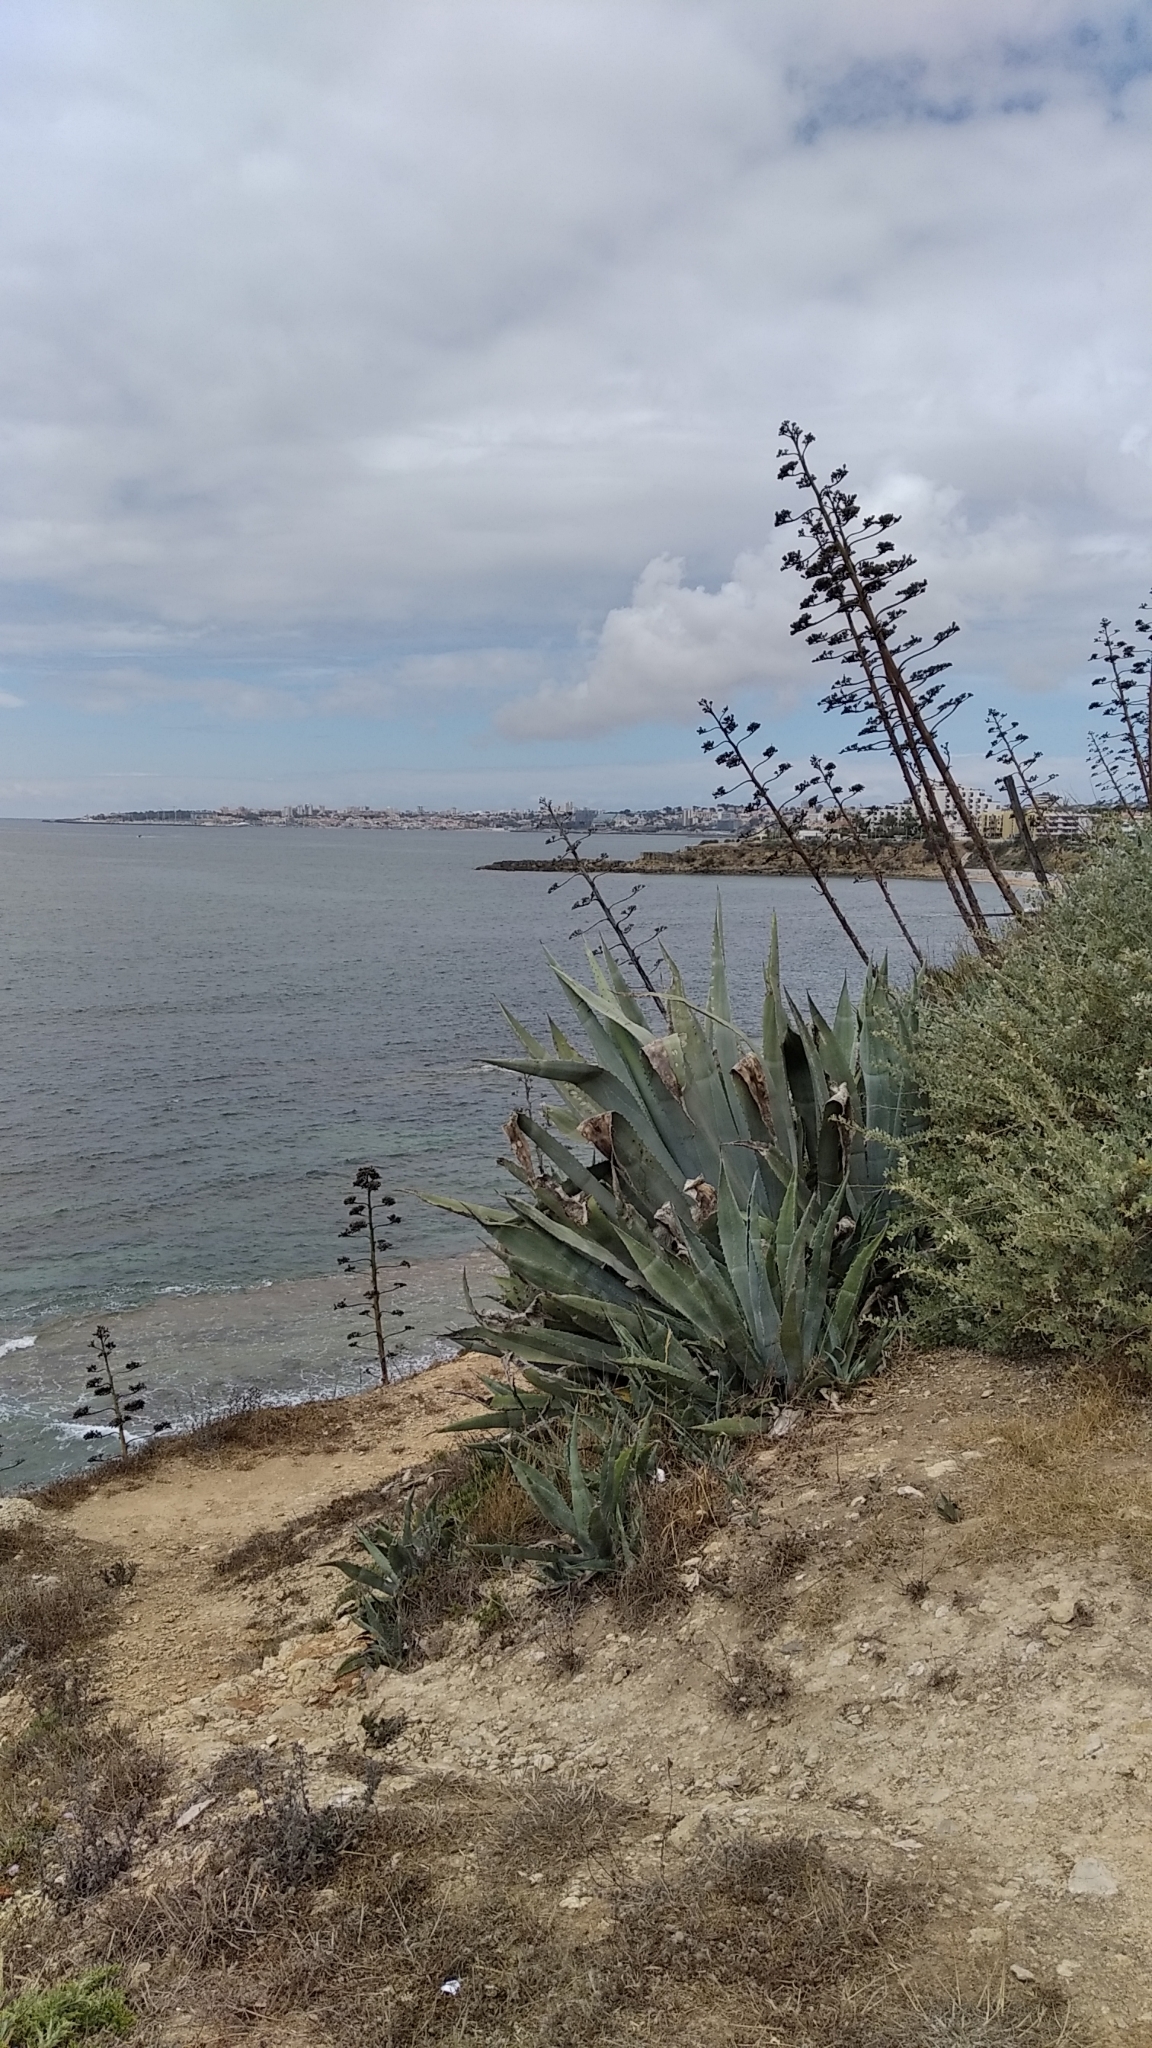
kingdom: Plantae
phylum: Tracheophyta
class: Liliopsida
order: Asparagales
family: Asparagaceae
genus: Agave
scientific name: Agave americana
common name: Centuryplant
